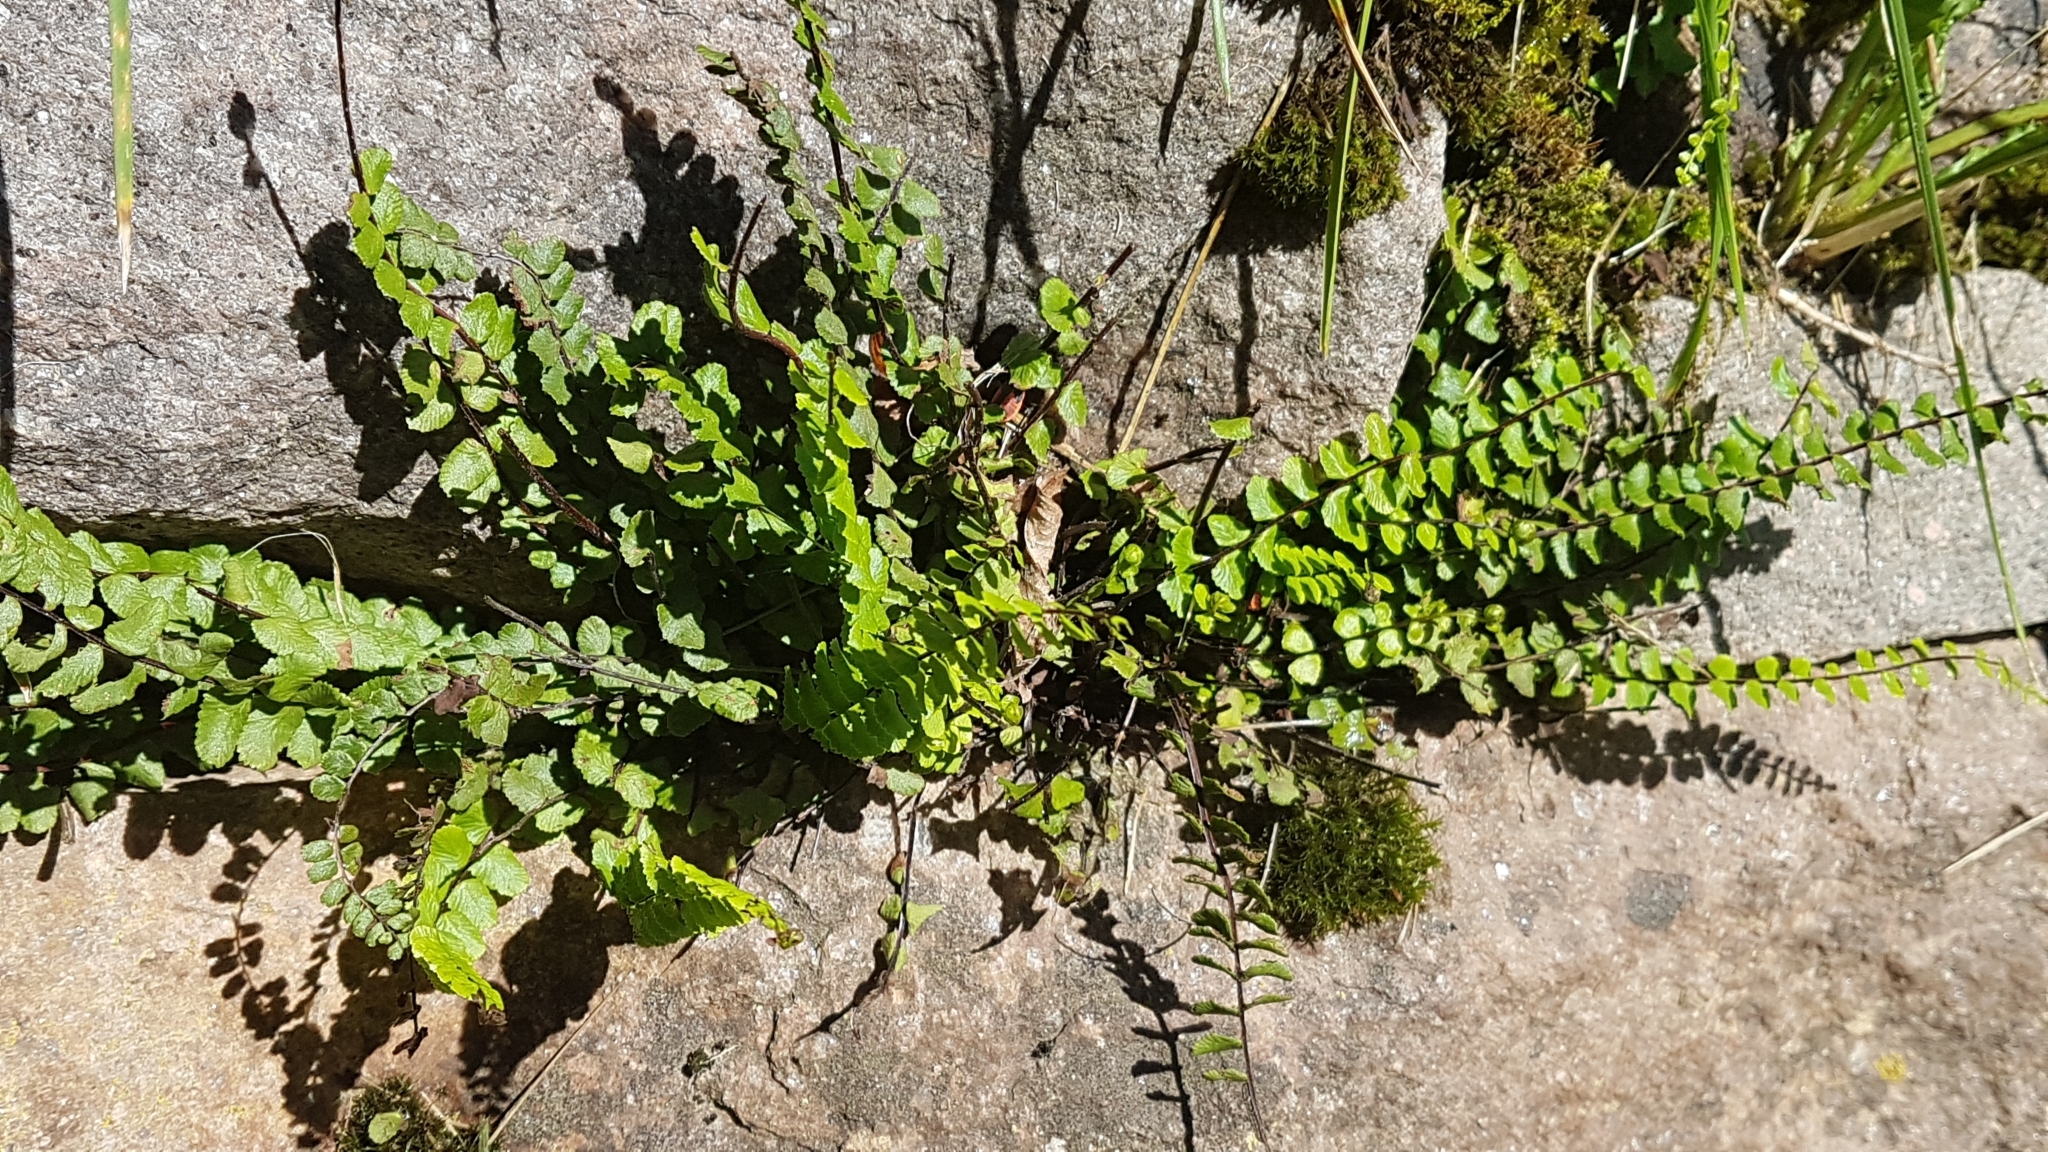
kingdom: Plantae
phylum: Tracheophyta
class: Polypodiopsida
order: Polypodiales
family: Aspleniaceae
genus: Asplenium
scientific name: Asplenium trichomanes
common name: Maidenhair spleenwort
